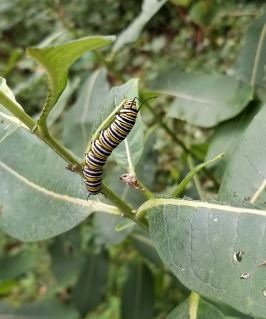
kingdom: Animalia
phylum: Arthropoda
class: Insecta
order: Lepidoptera
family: Nymphalidae
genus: Danaus
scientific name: Danaus plexippus
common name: Monarch
